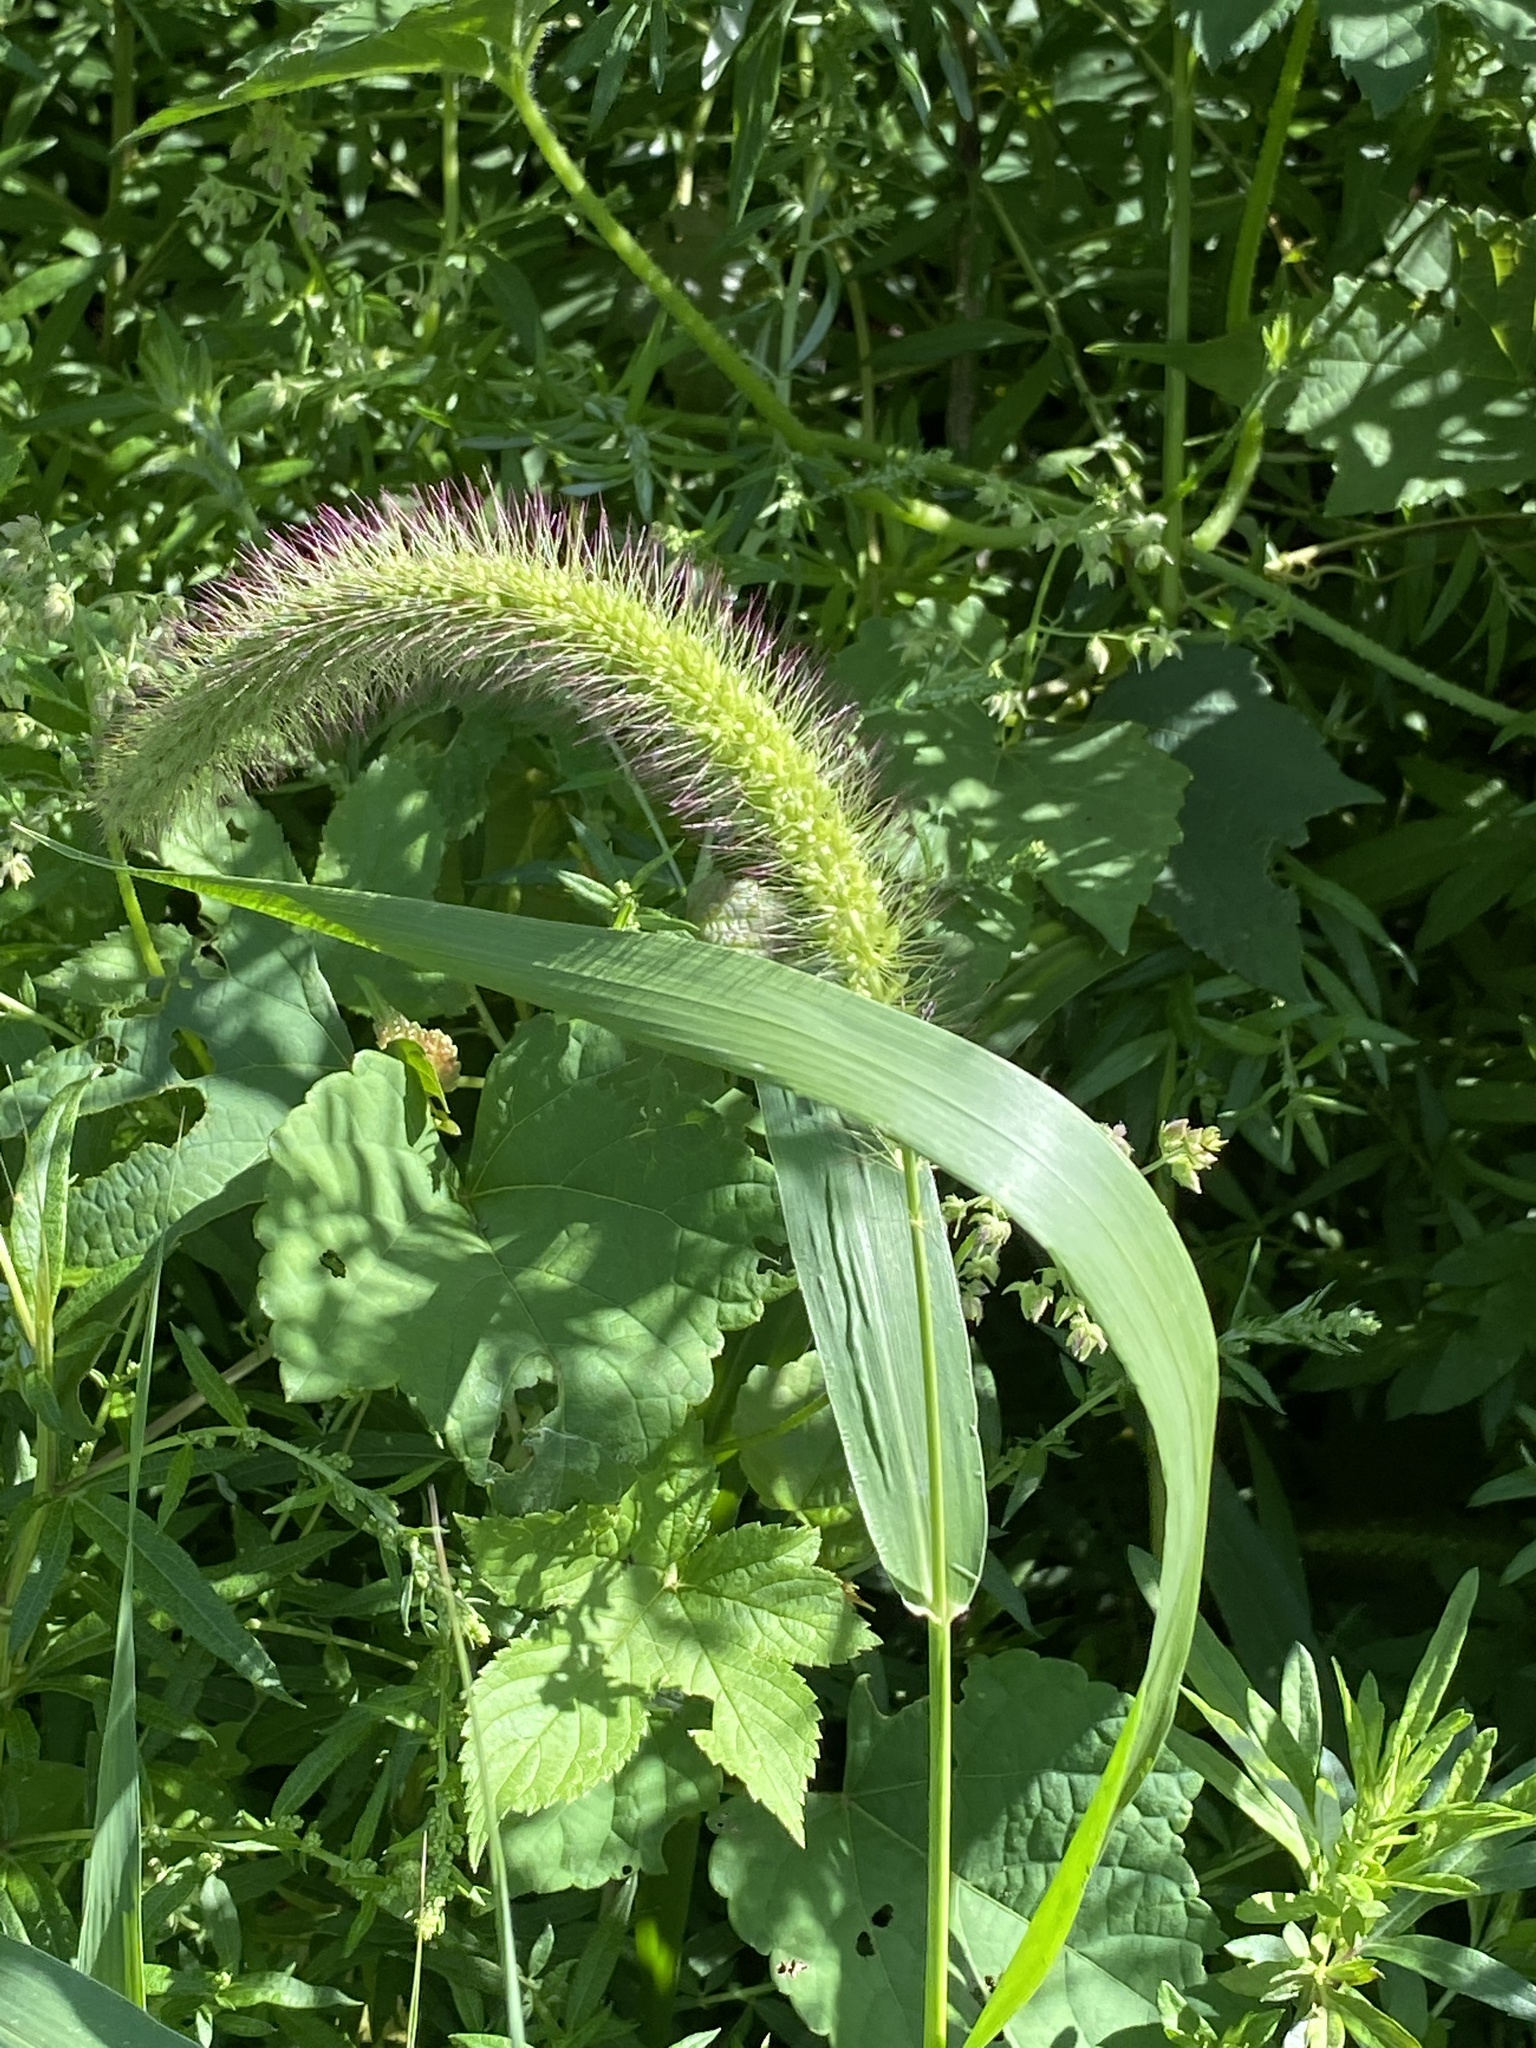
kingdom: Plantae
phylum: Tracheophyta
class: Liliopsida
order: Poales
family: Poaceae
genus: Setaria
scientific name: Setaria faberi
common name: Nodding bristle-grass
